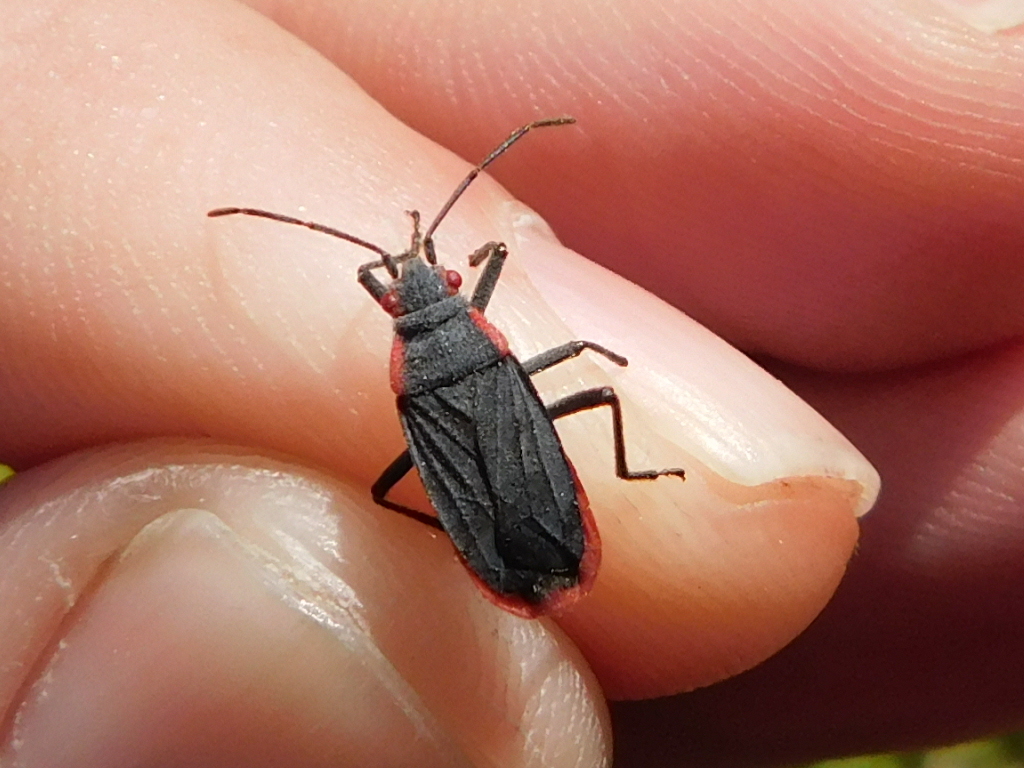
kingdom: Animalia
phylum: Arthropoda
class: Insecta
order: Hemiptera
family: Rhopalidae
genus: Jadera
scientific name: Jadera haematoloma
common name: Red-shouldered bug
